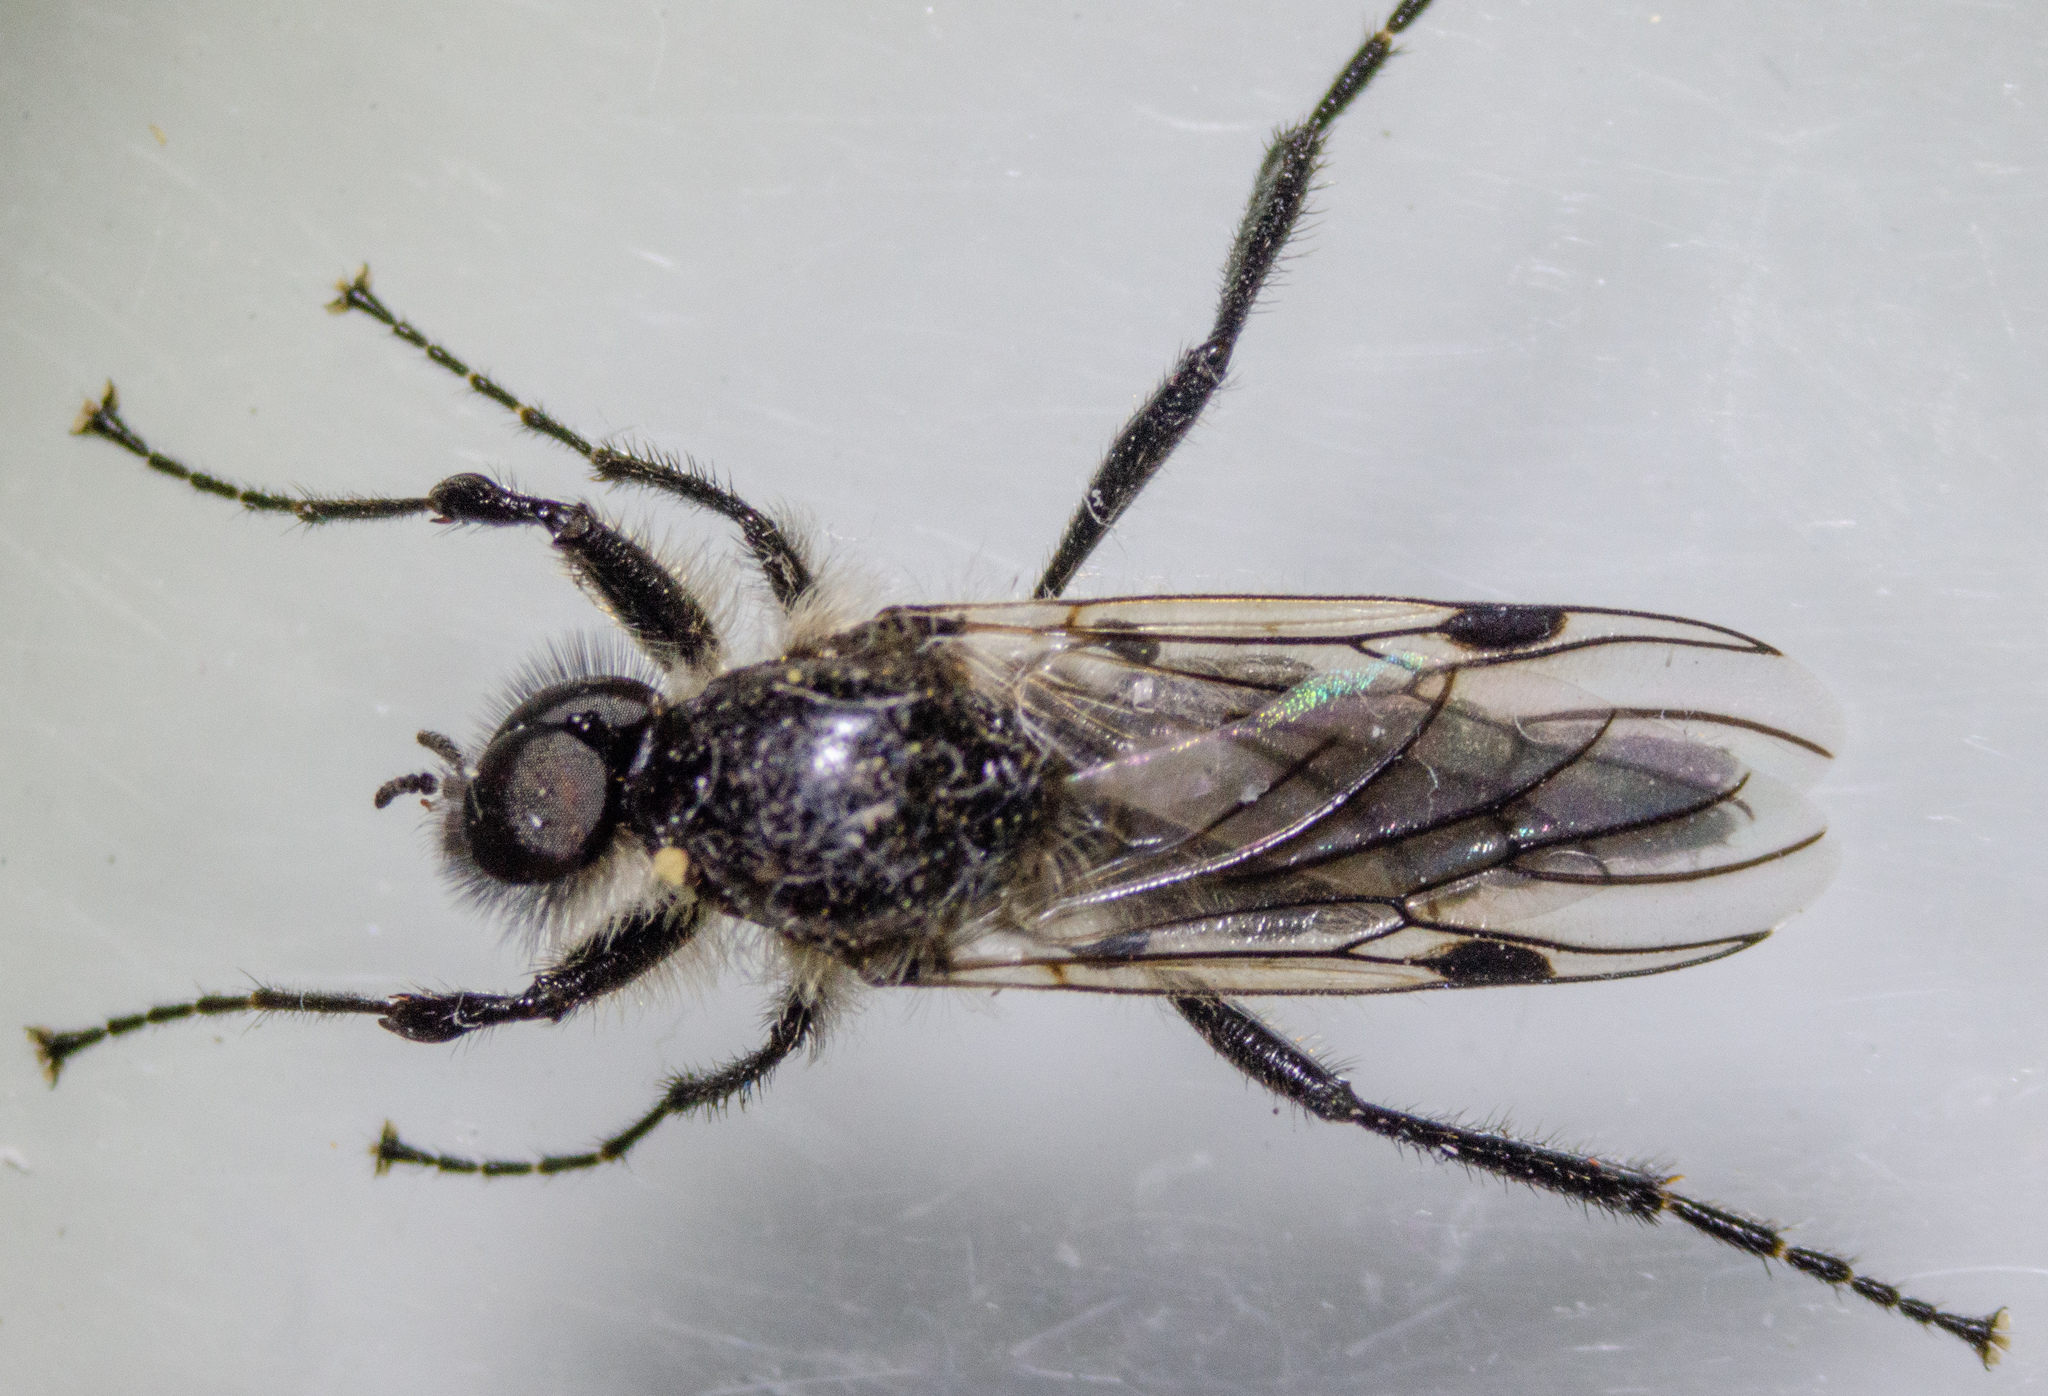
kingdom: Animalia
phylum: Arthropoda
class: Insecta
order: Diptera
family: Bibionidae
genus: Bibio
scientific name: Bibio albipennis
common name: White-winged march fly
